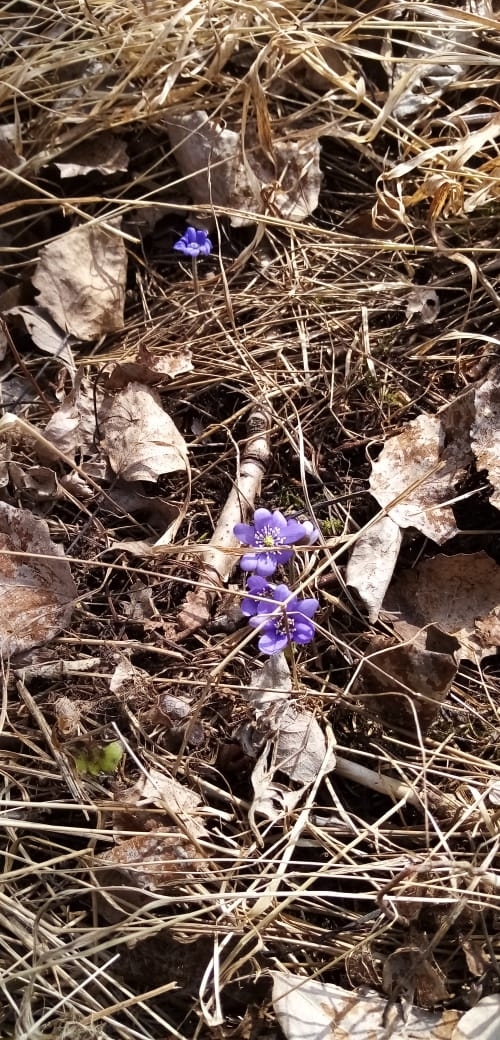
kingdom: Plantae
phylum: Tracheophyta
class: Magnoliopsida
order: Ranunculales
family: Ranunculaceae
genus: Hepatica
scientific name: Hepatica nobilis
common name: Liverleaf
